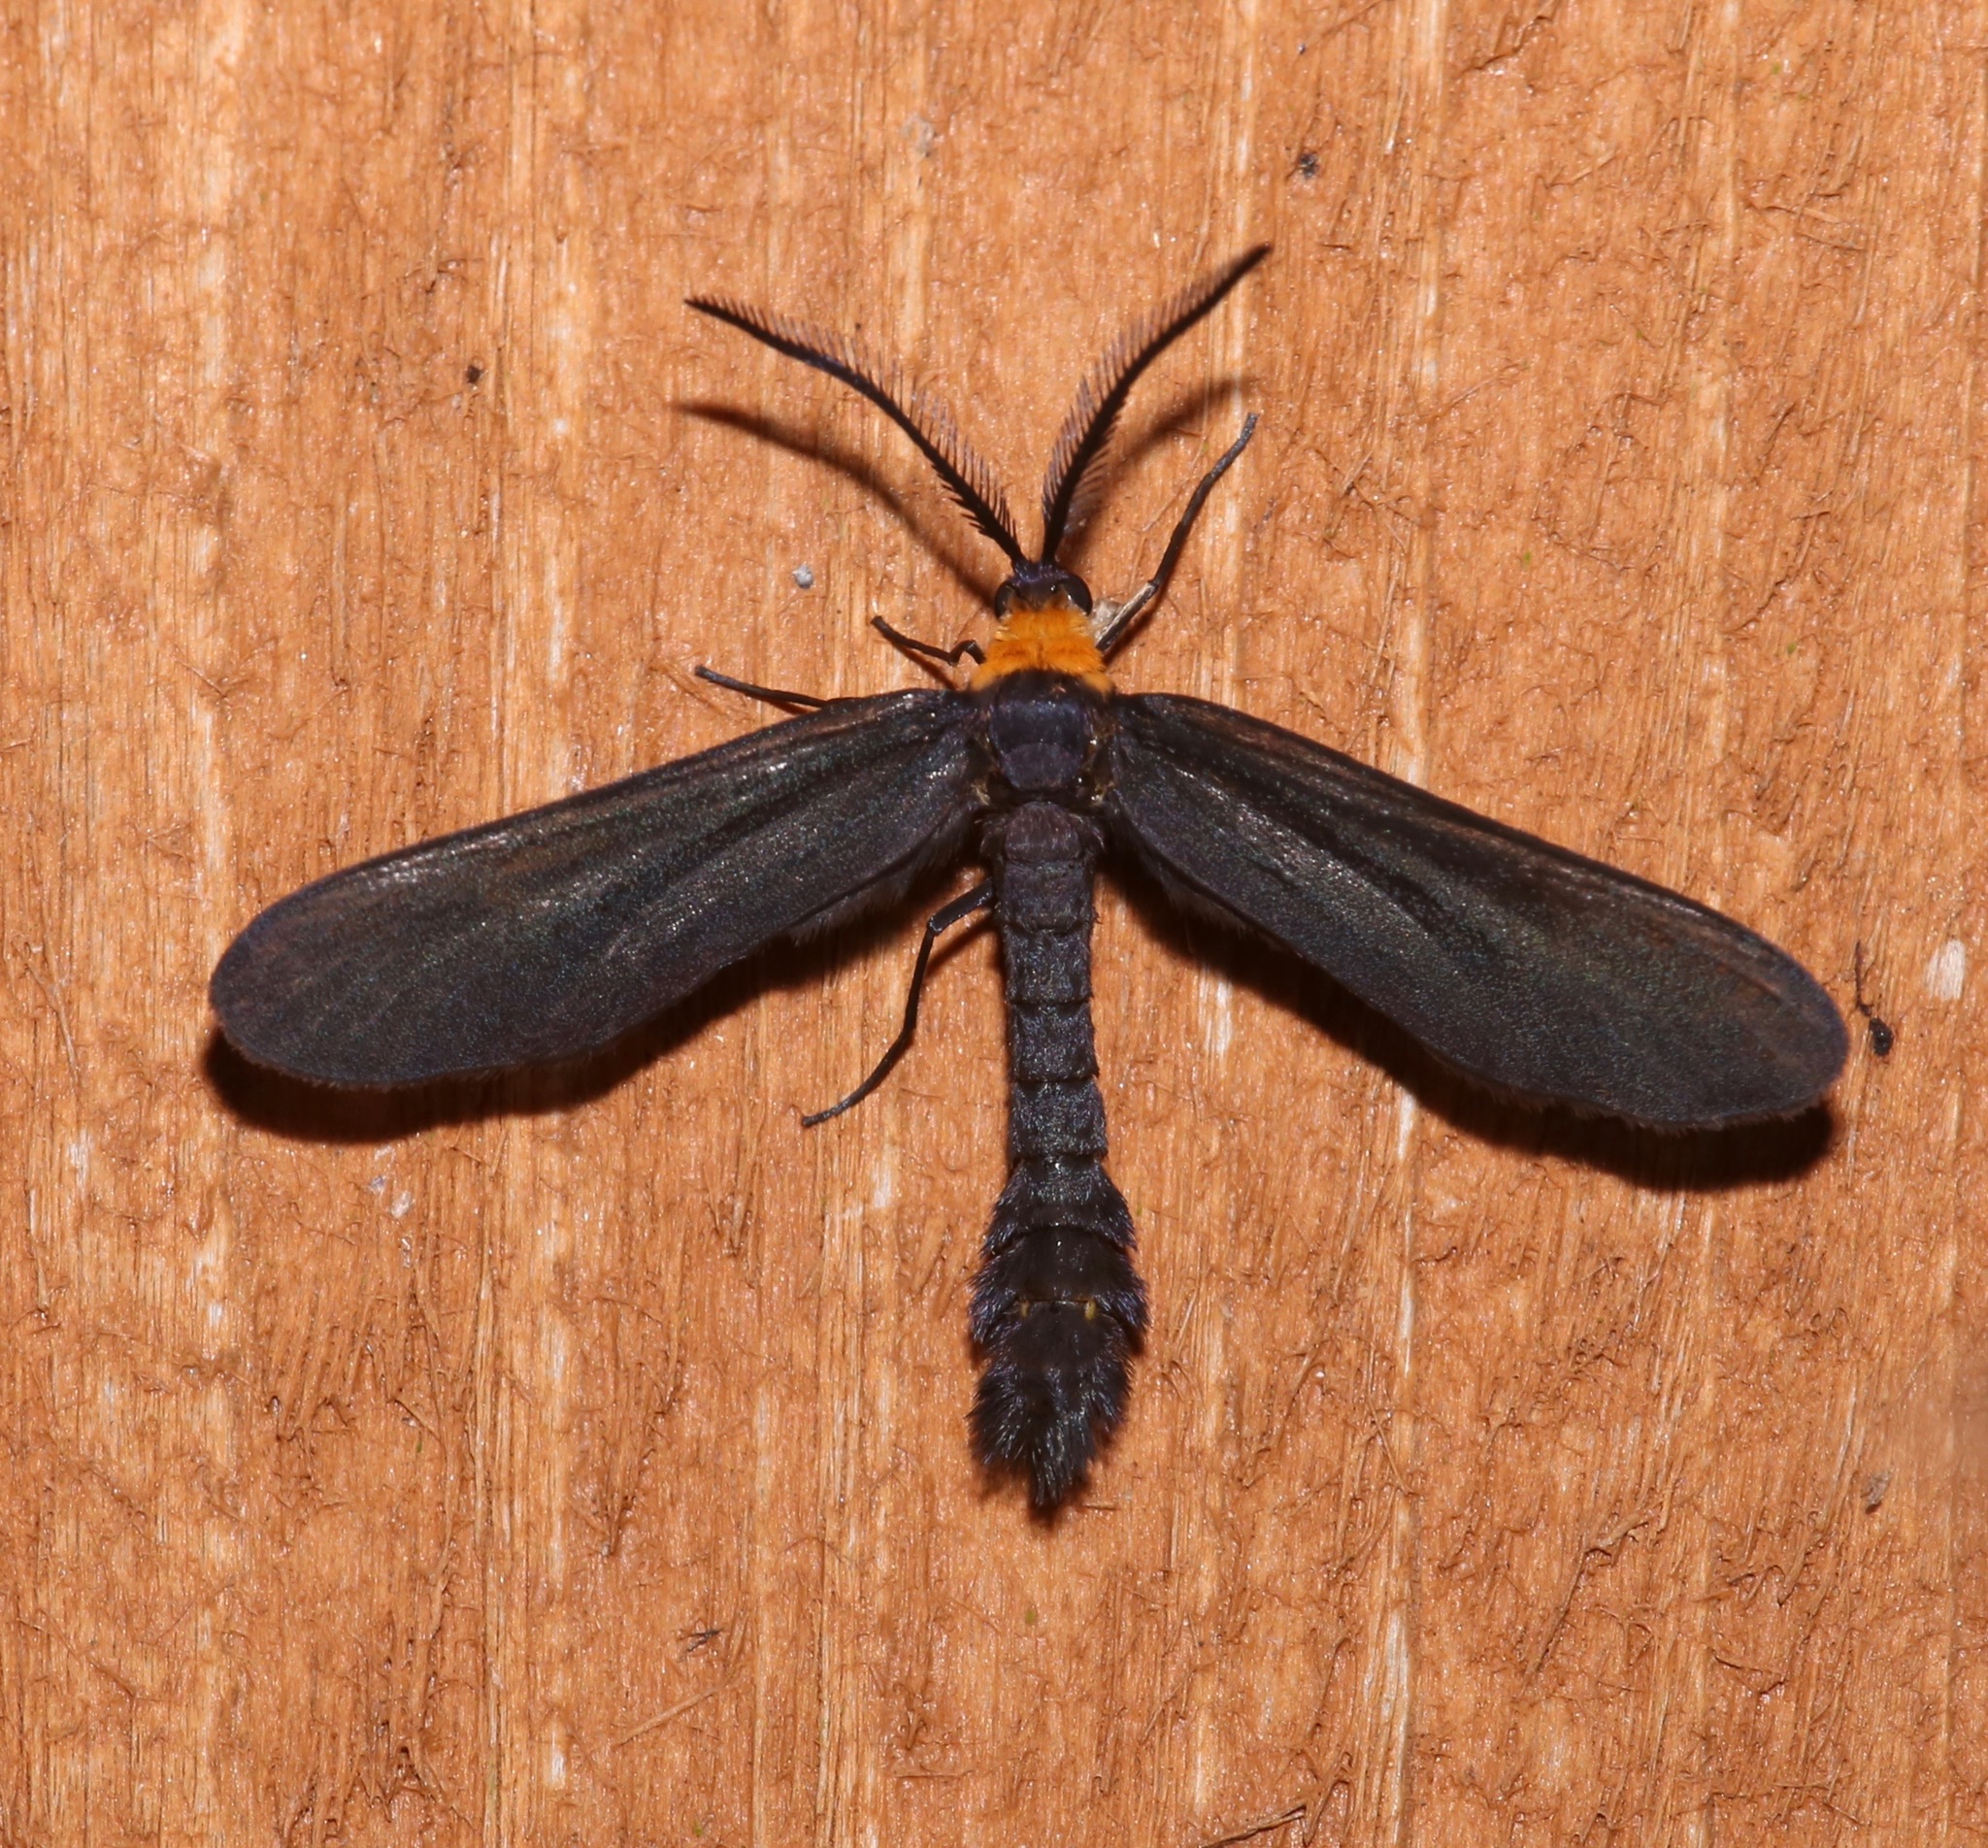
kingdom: Animalia
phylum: Arthropoda
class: Insecta
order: Lepidoptera
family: Zygaenidae
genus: Harrisina
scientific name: Harrisina americana
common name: Grapeleaf skeletonizer moth
